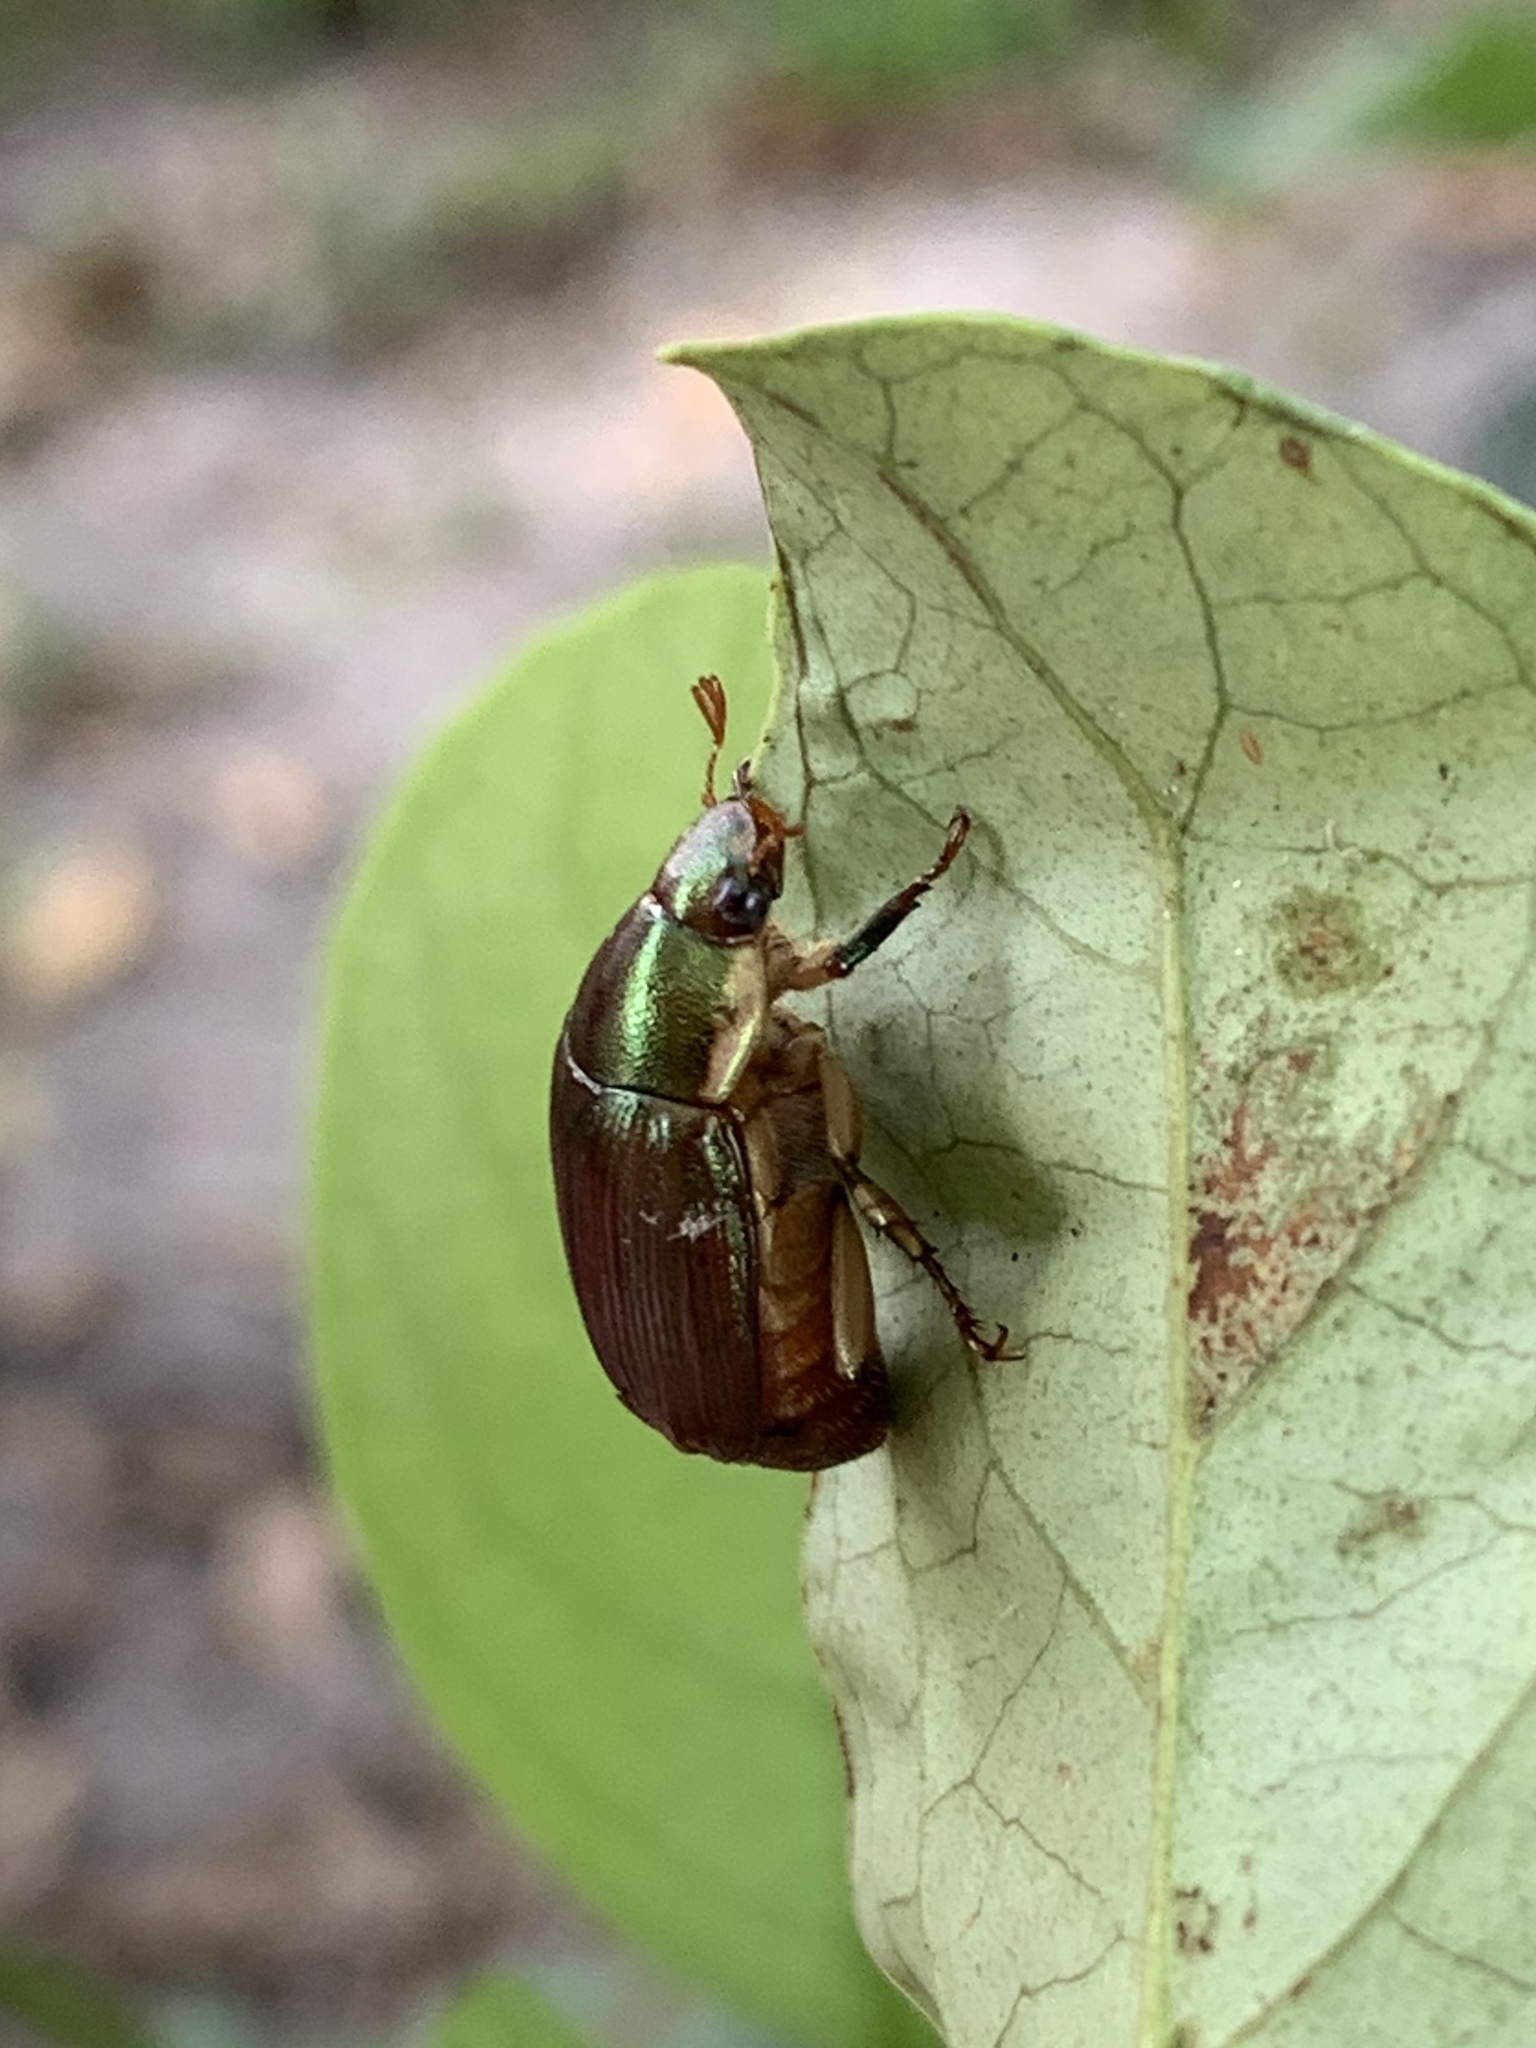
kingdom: Animalia
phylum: Arthropoda
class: Insecta
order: Coleoptera
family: Scarabaeidae
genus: Callistethus
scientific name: Callistethus marginatus
